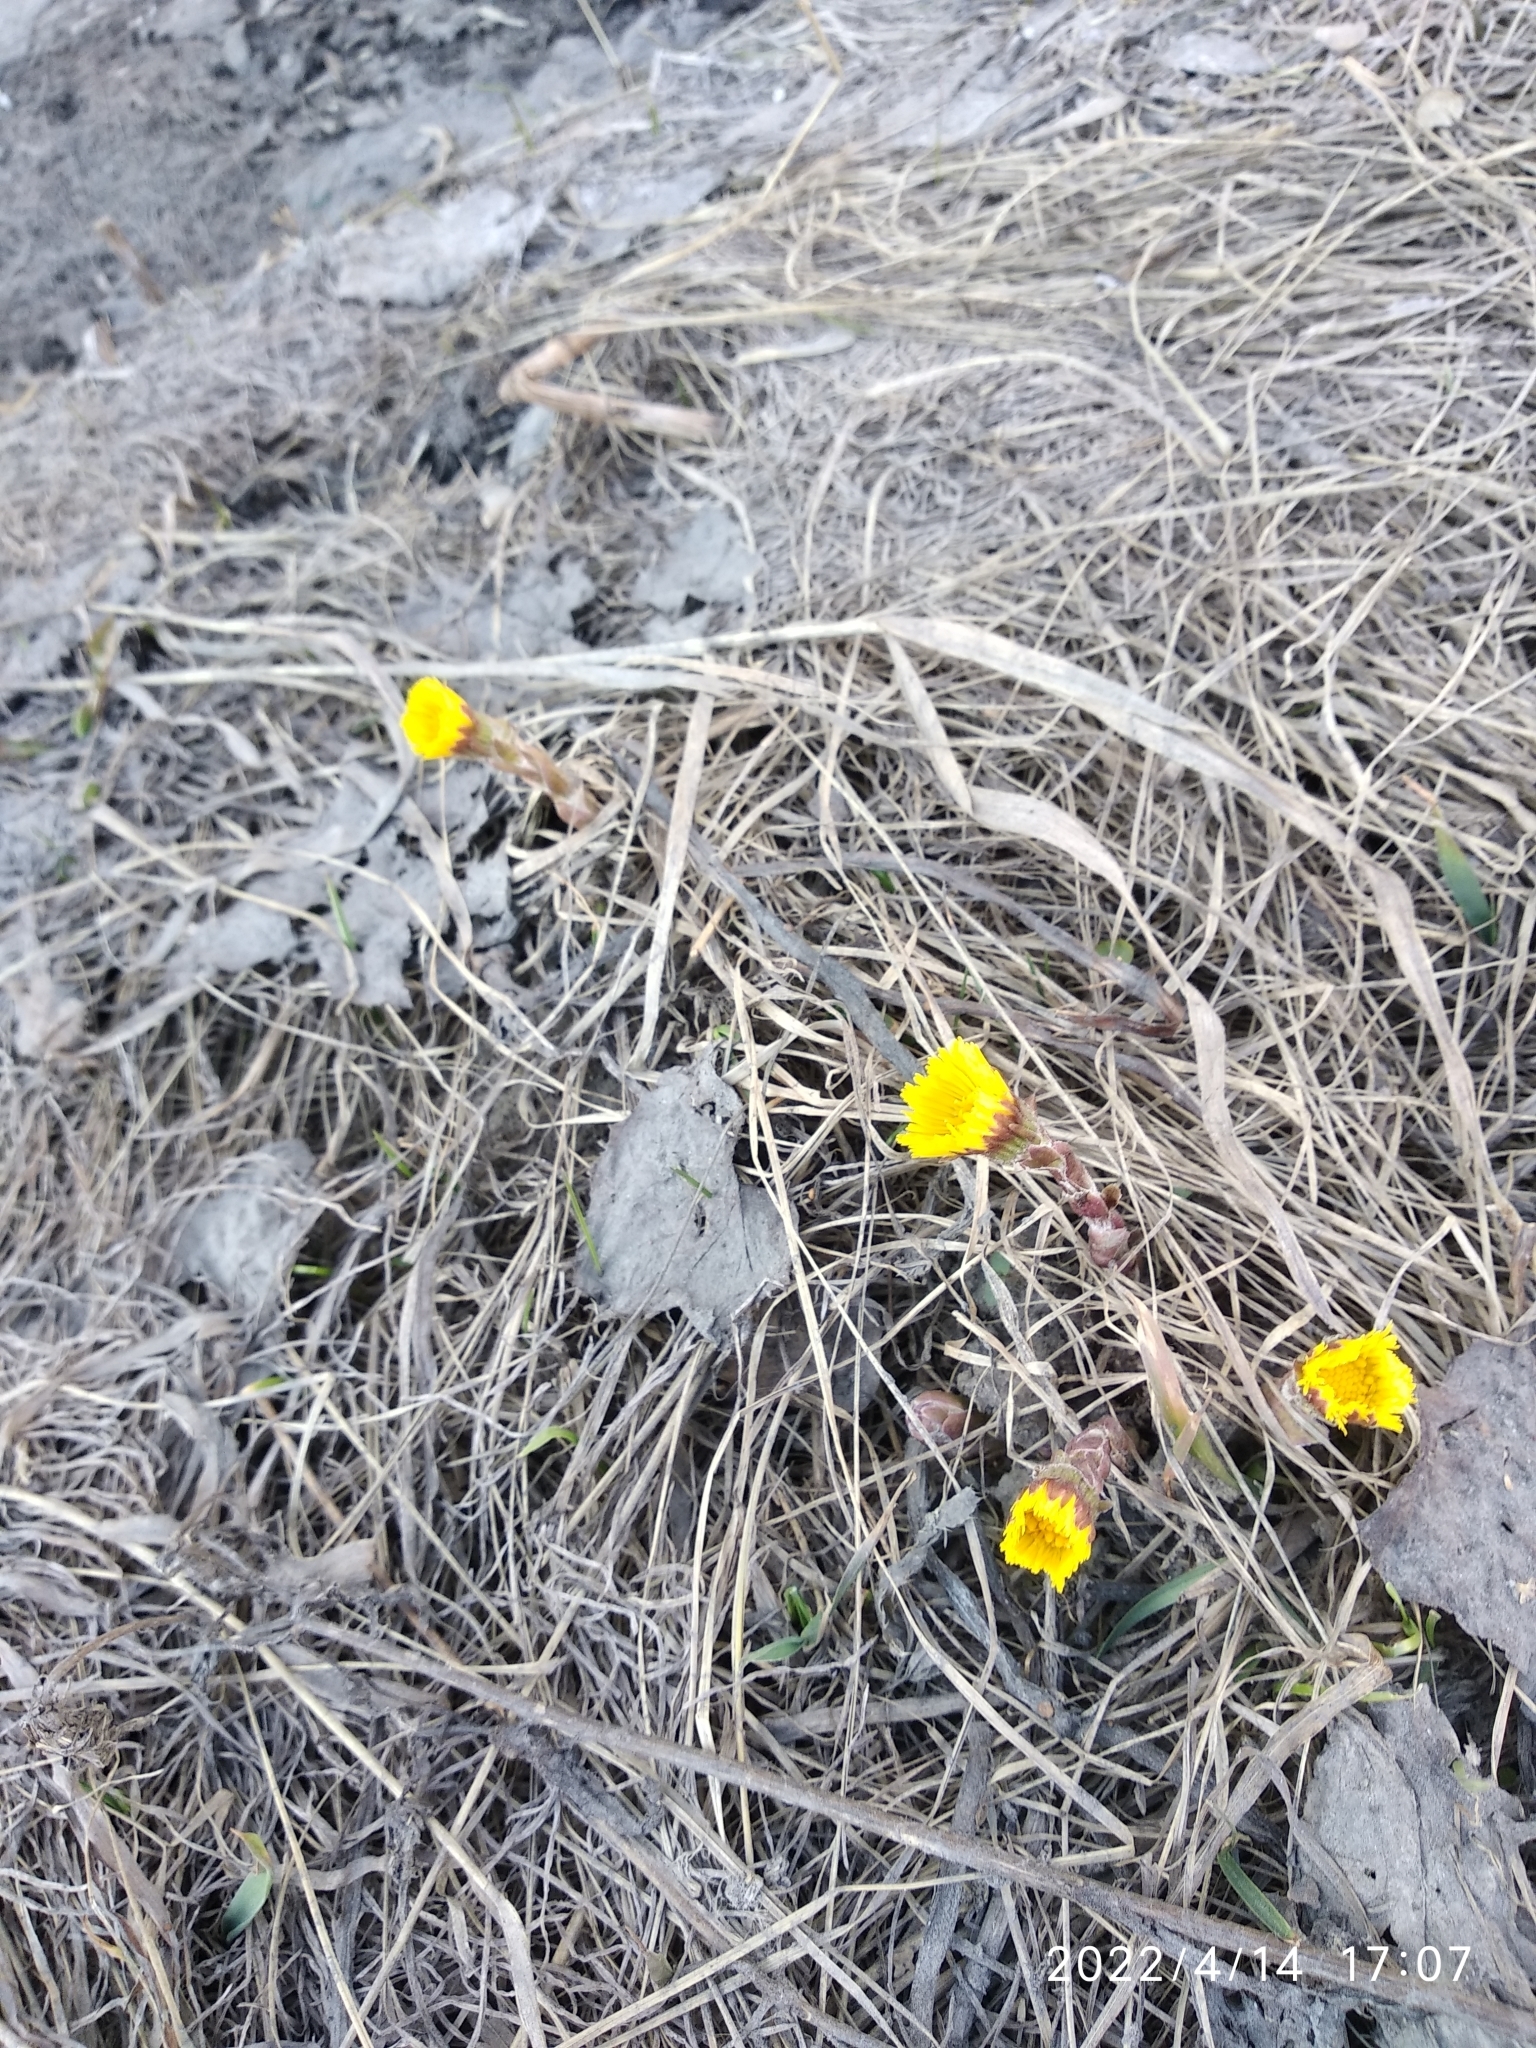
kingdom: Plantae
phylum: Tracheophyta
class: Magnoliopsida
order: Asterales
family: Asteraceae
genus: Tussilago
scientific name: Tussilago farfara
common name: Coltsfoot
